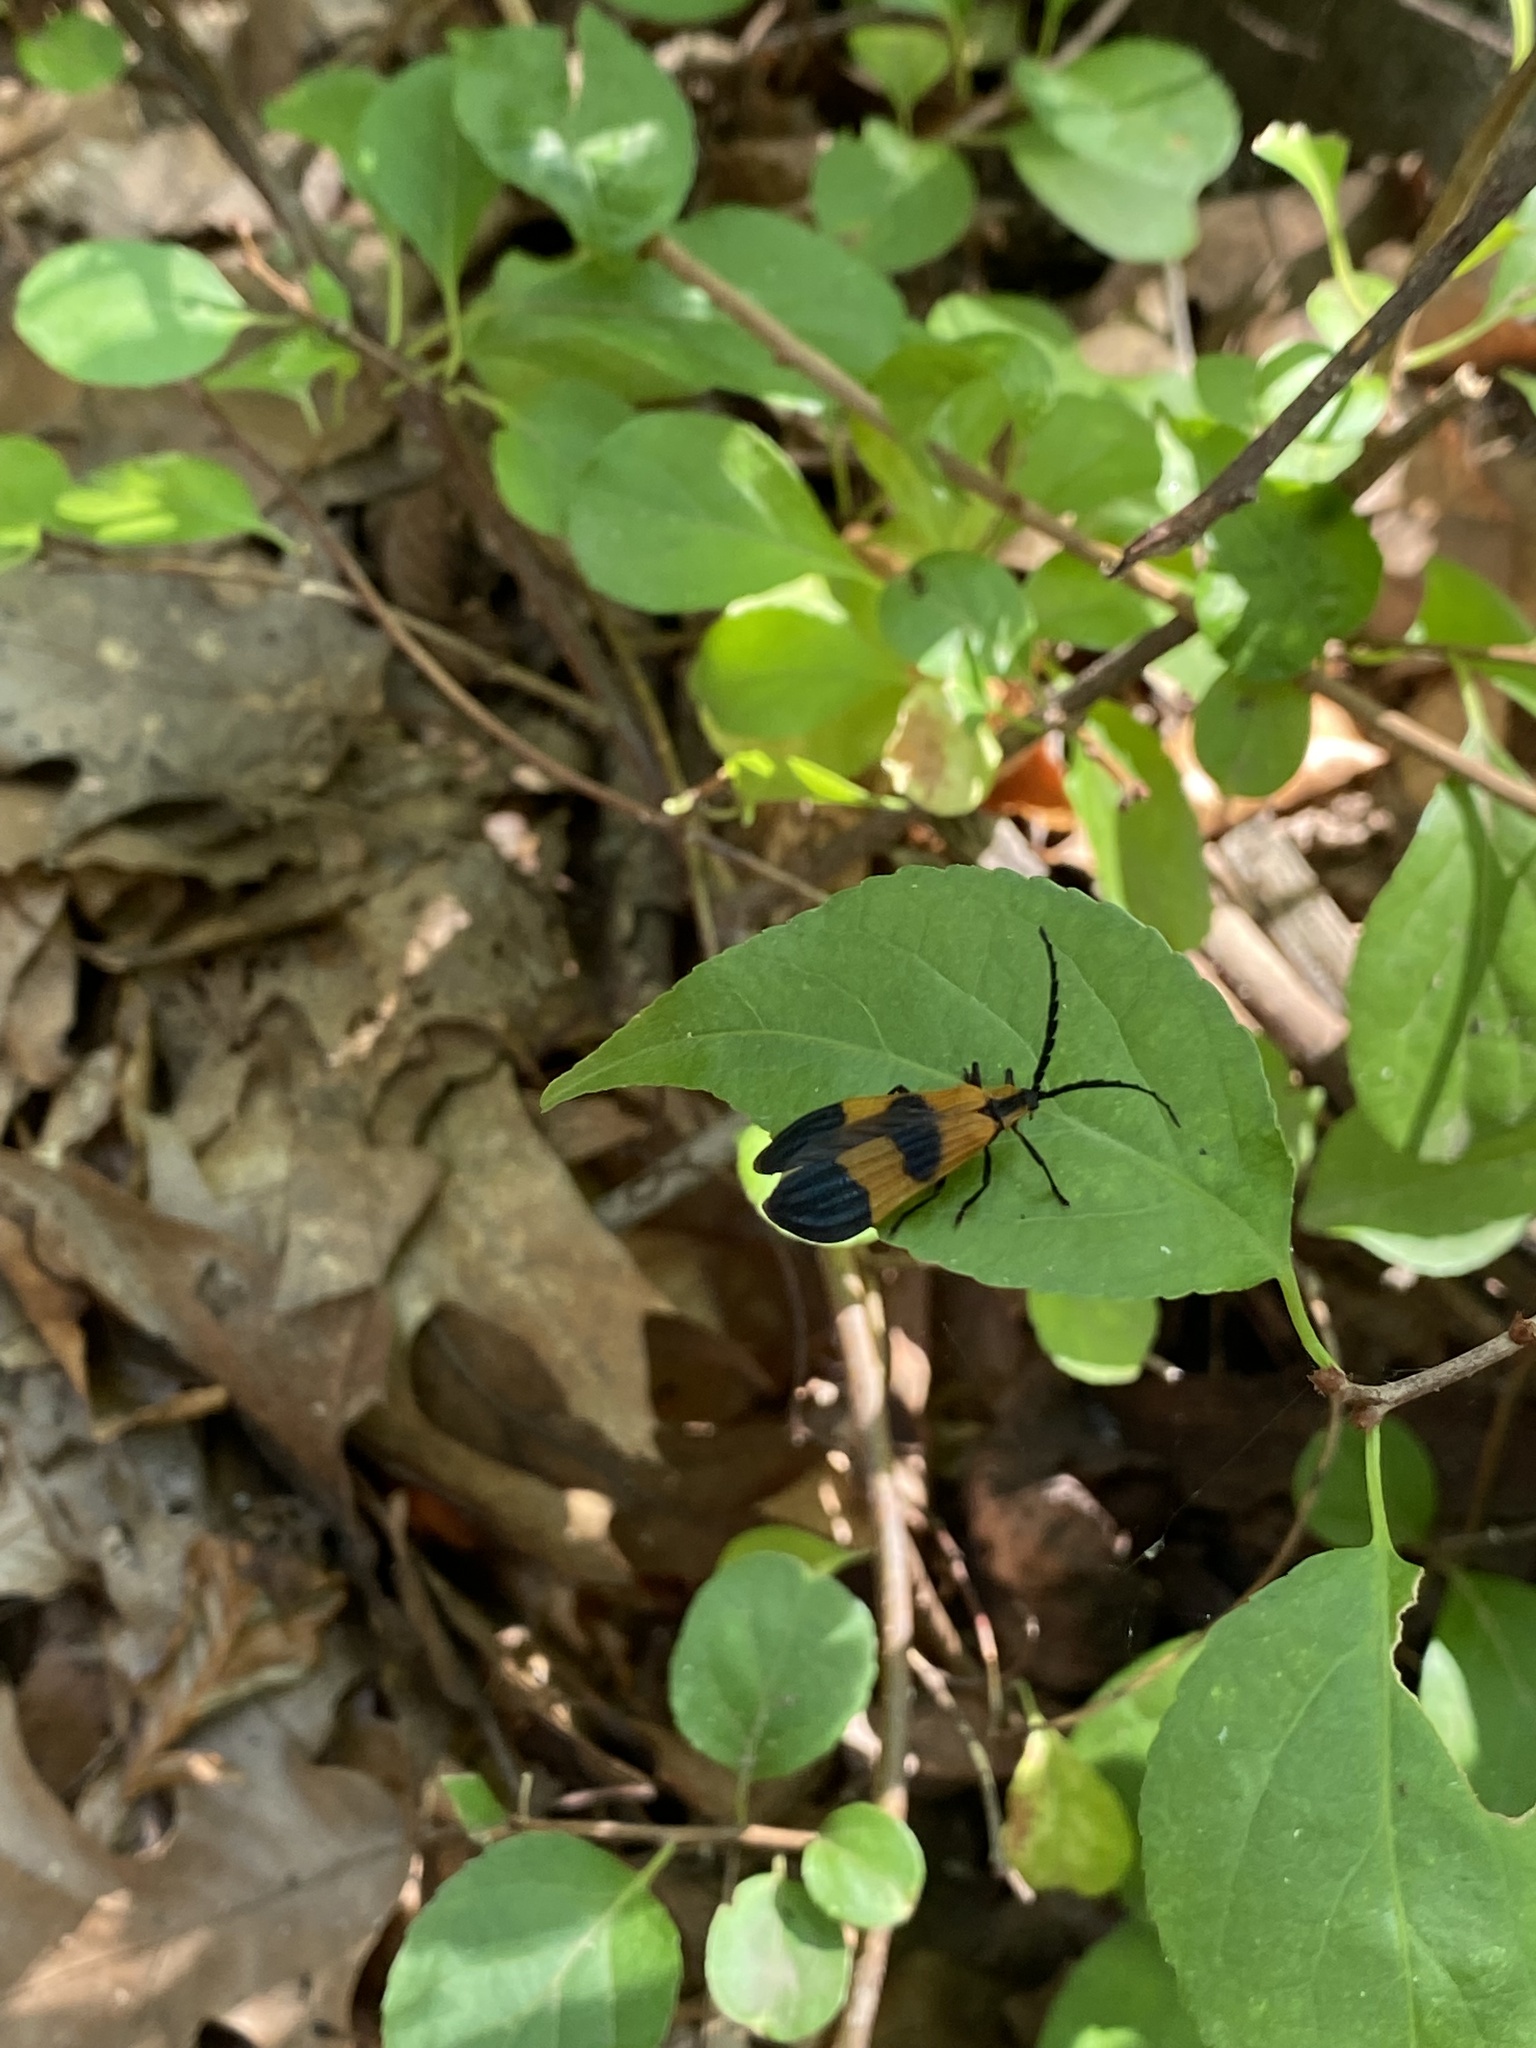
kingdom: Animalia
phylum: Arthropoda
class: Insecta
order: Coleoptera
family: Lycidae
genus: Calopteron
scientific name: Calopteron terminale
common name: End band net-winged beetle
